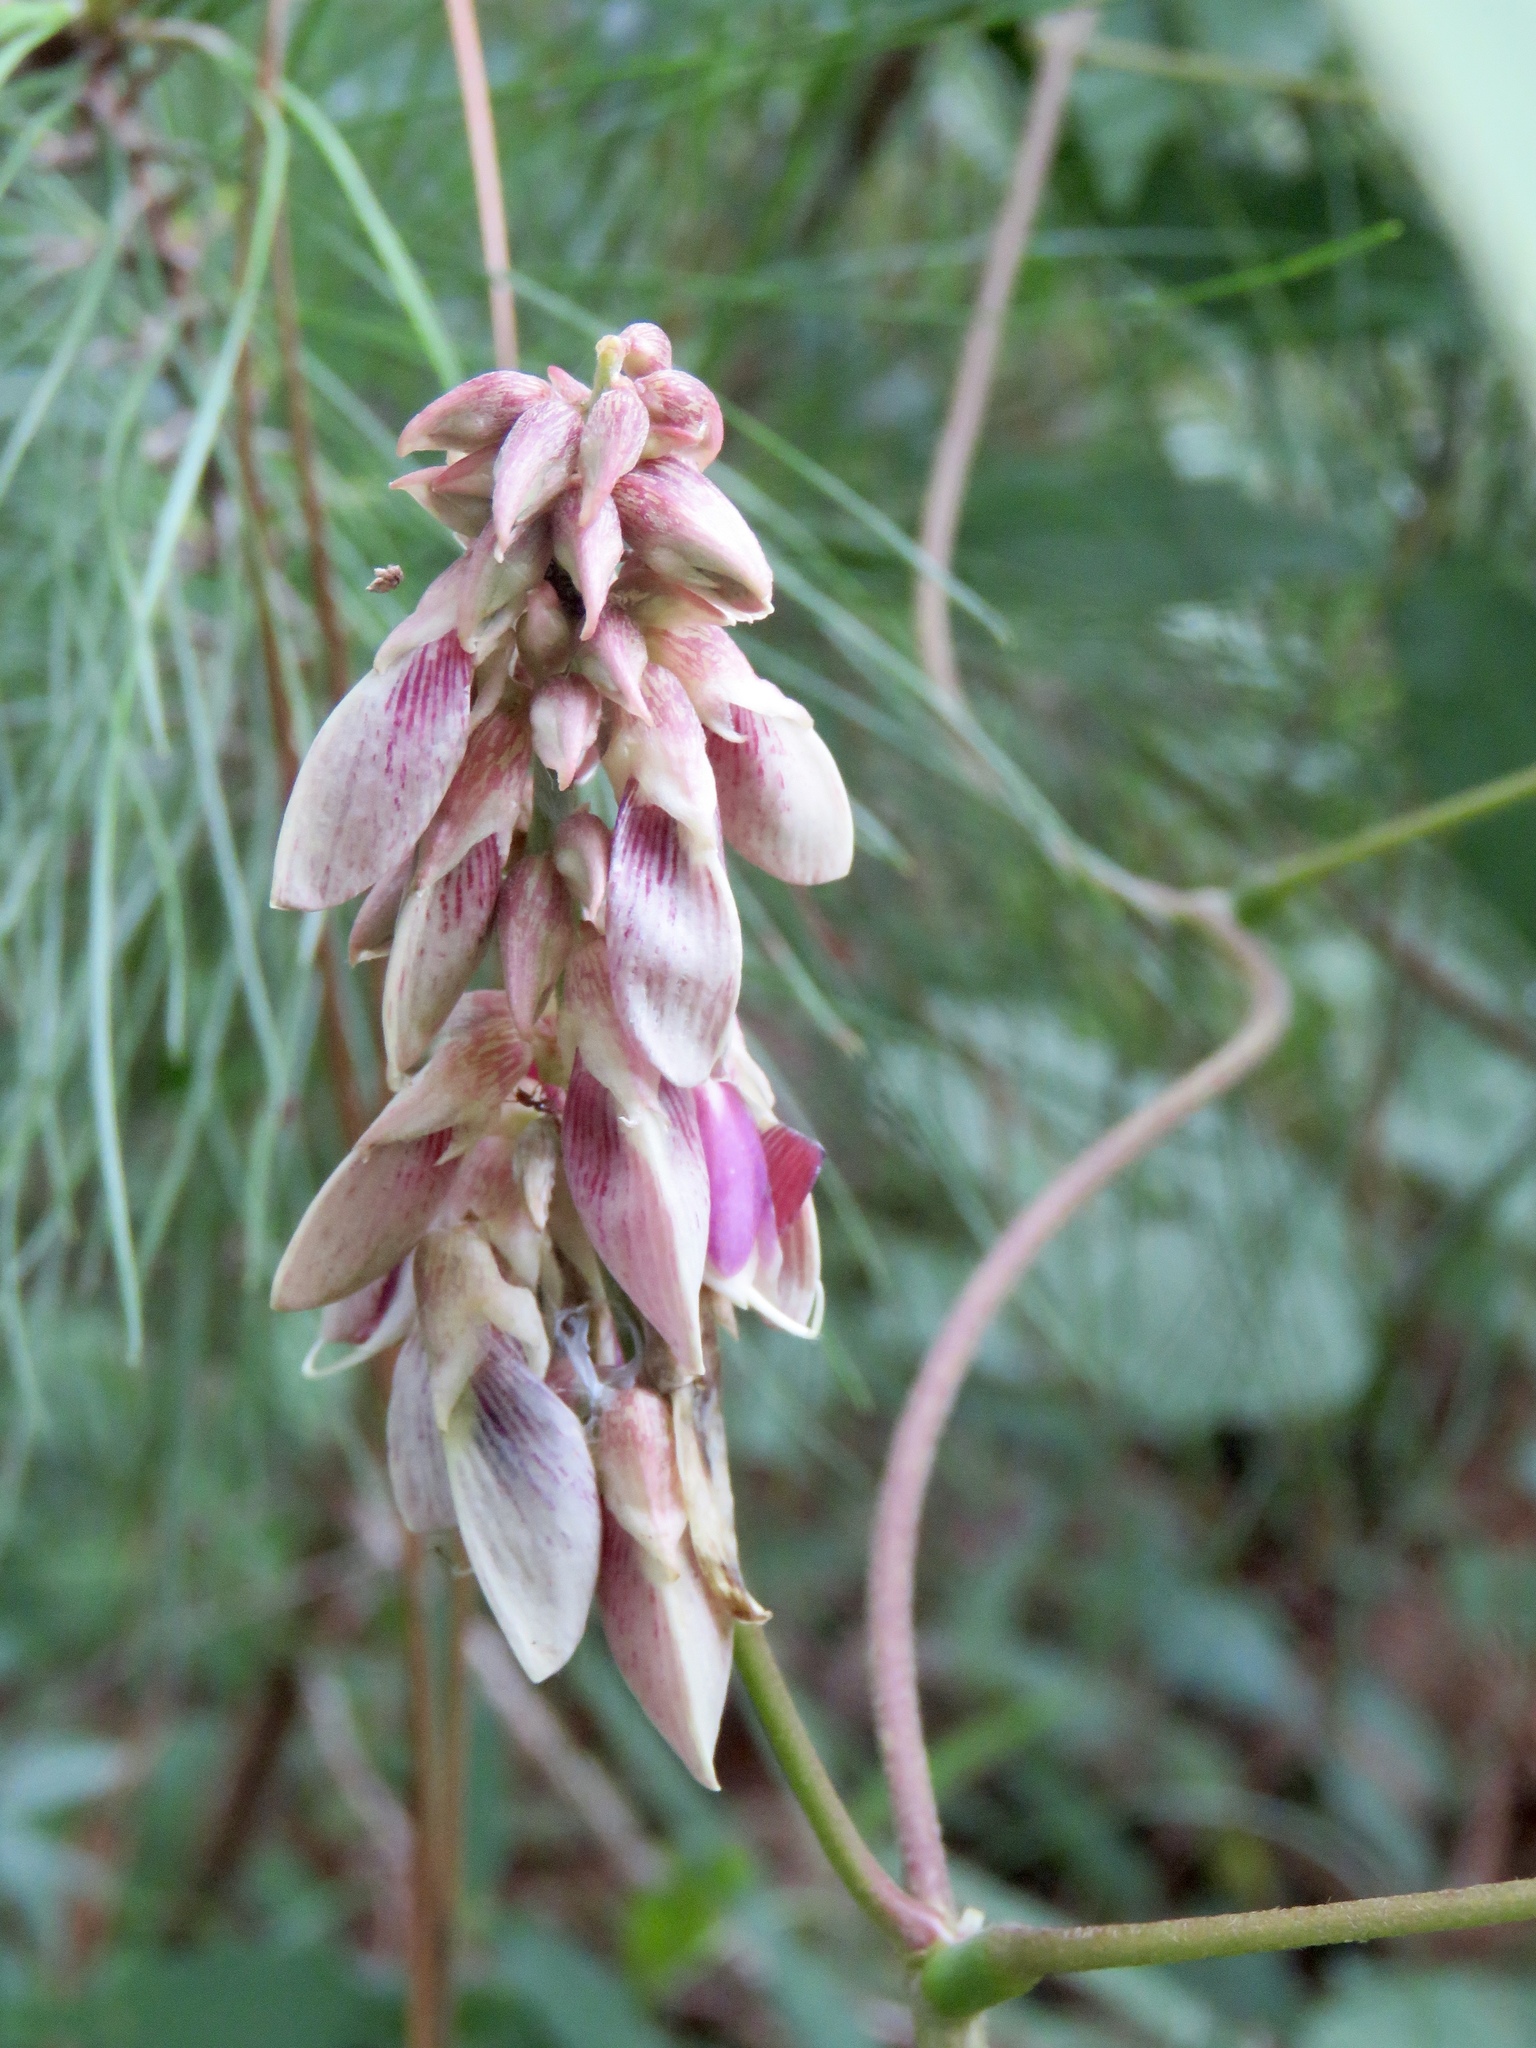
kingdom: Plantae
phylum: Tracheophyta
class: Magnoliopsida
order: Fabales
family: Fabaceae
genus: Lackeya
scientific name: Lackeya multiflora
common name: Boykin's clusterpea
